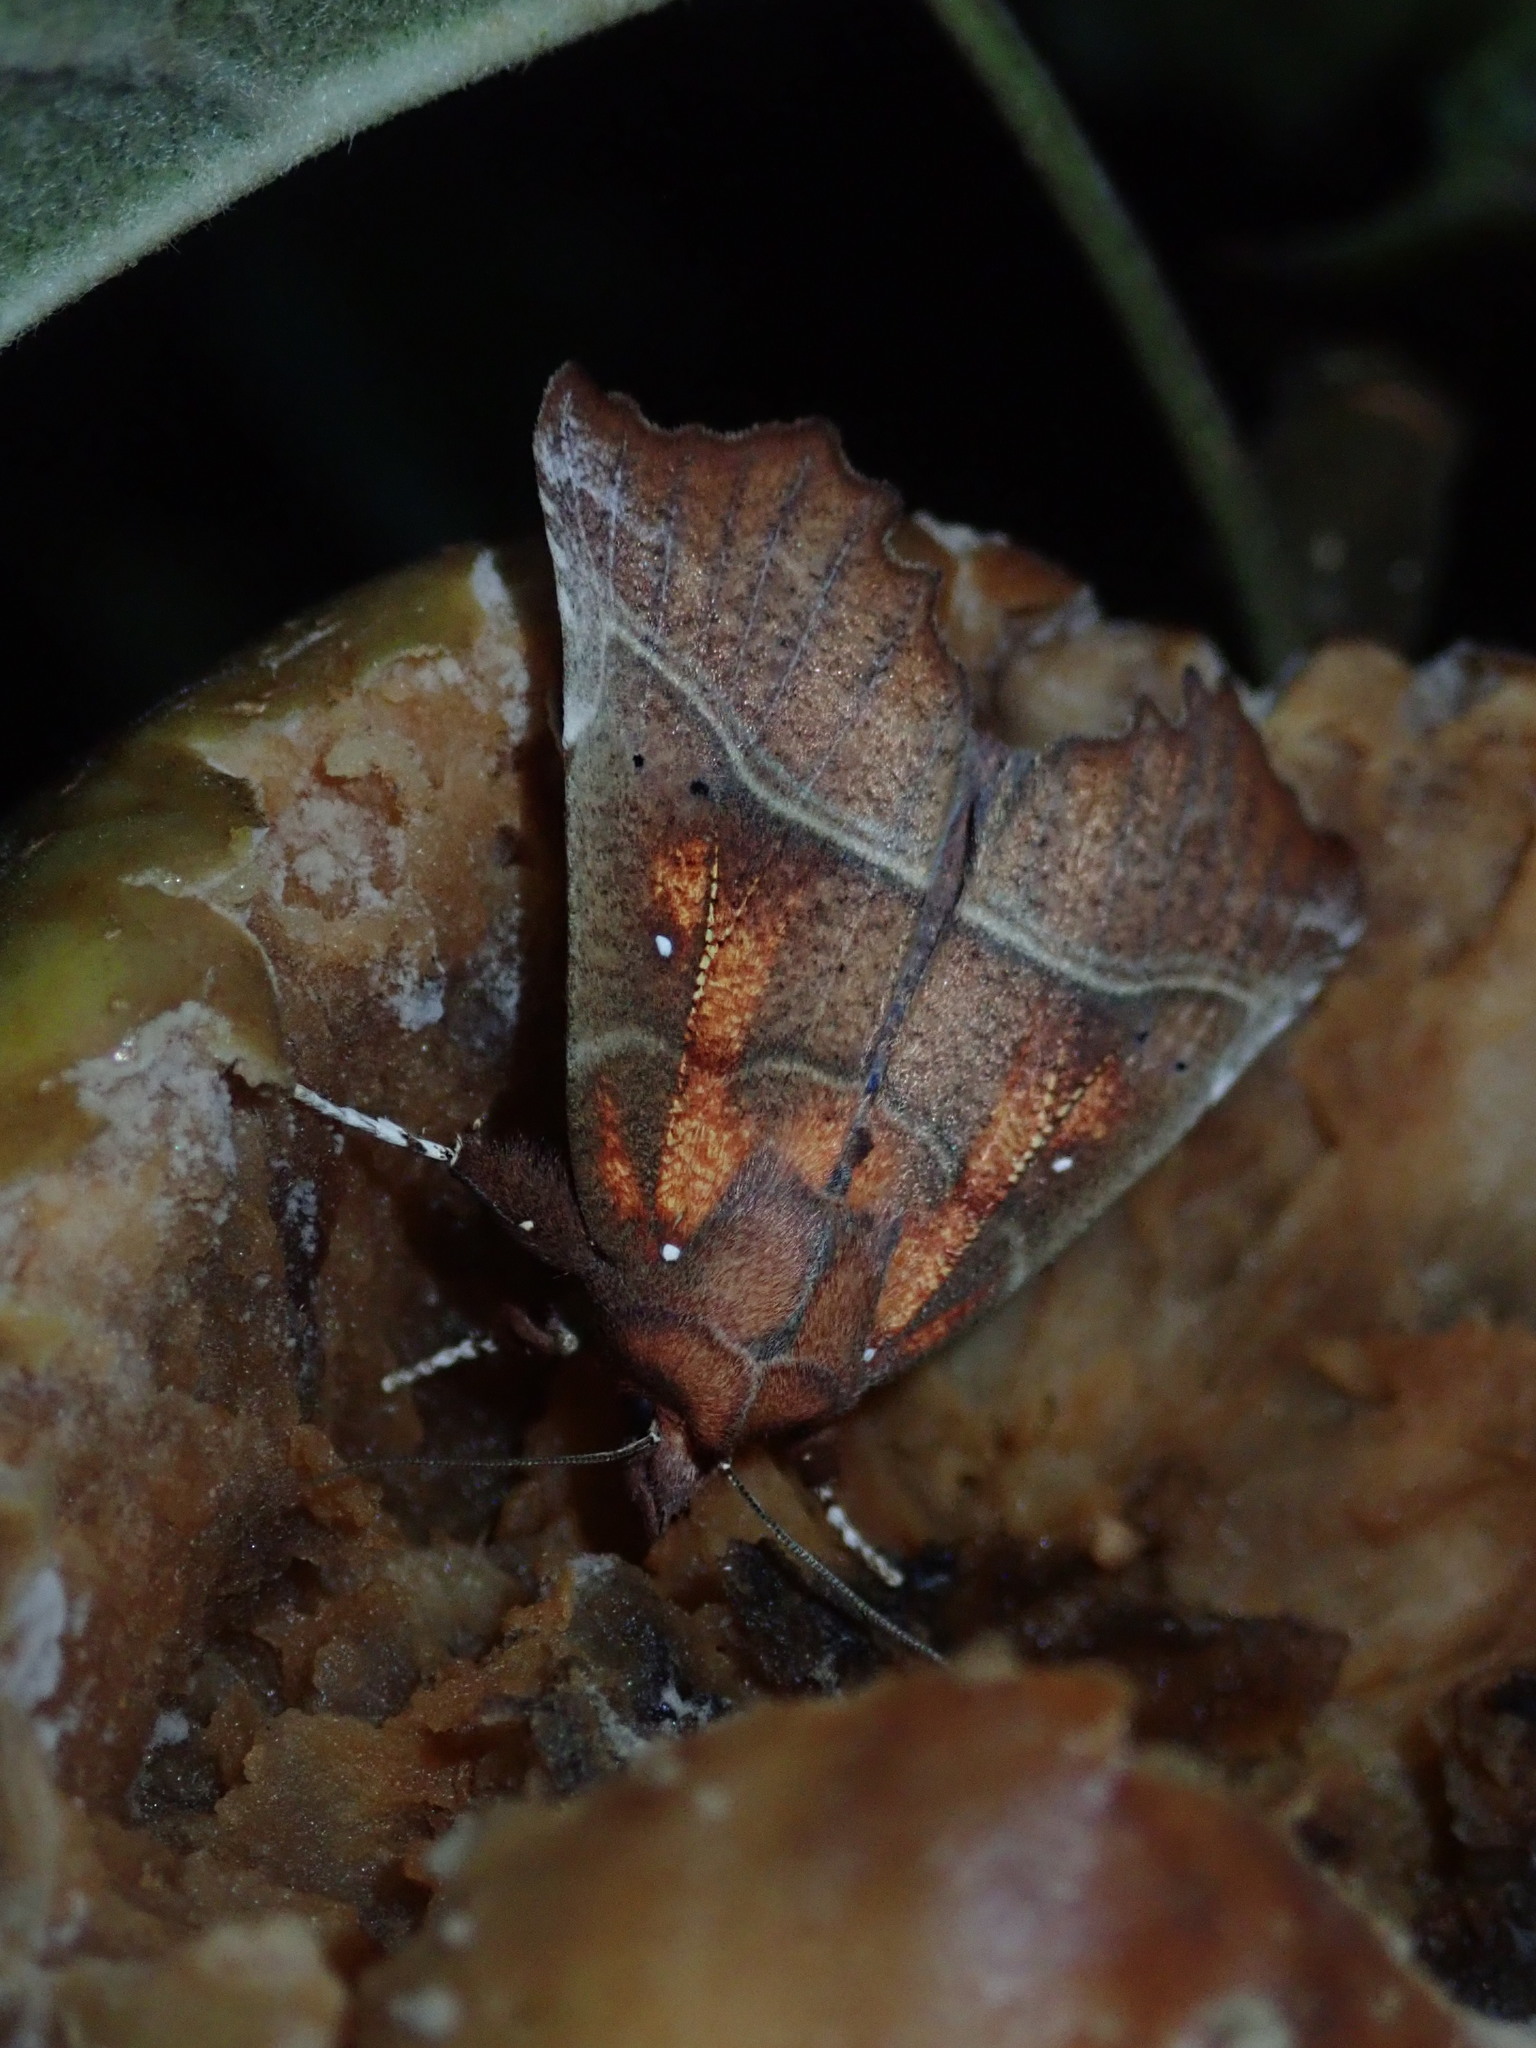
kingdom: Animalia
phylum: Arthropoda
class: Insecta
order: Lepidoptera
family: Erebidae
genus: Scoliopteryx
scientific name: Scoliopteryx libatrix
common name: Herald
